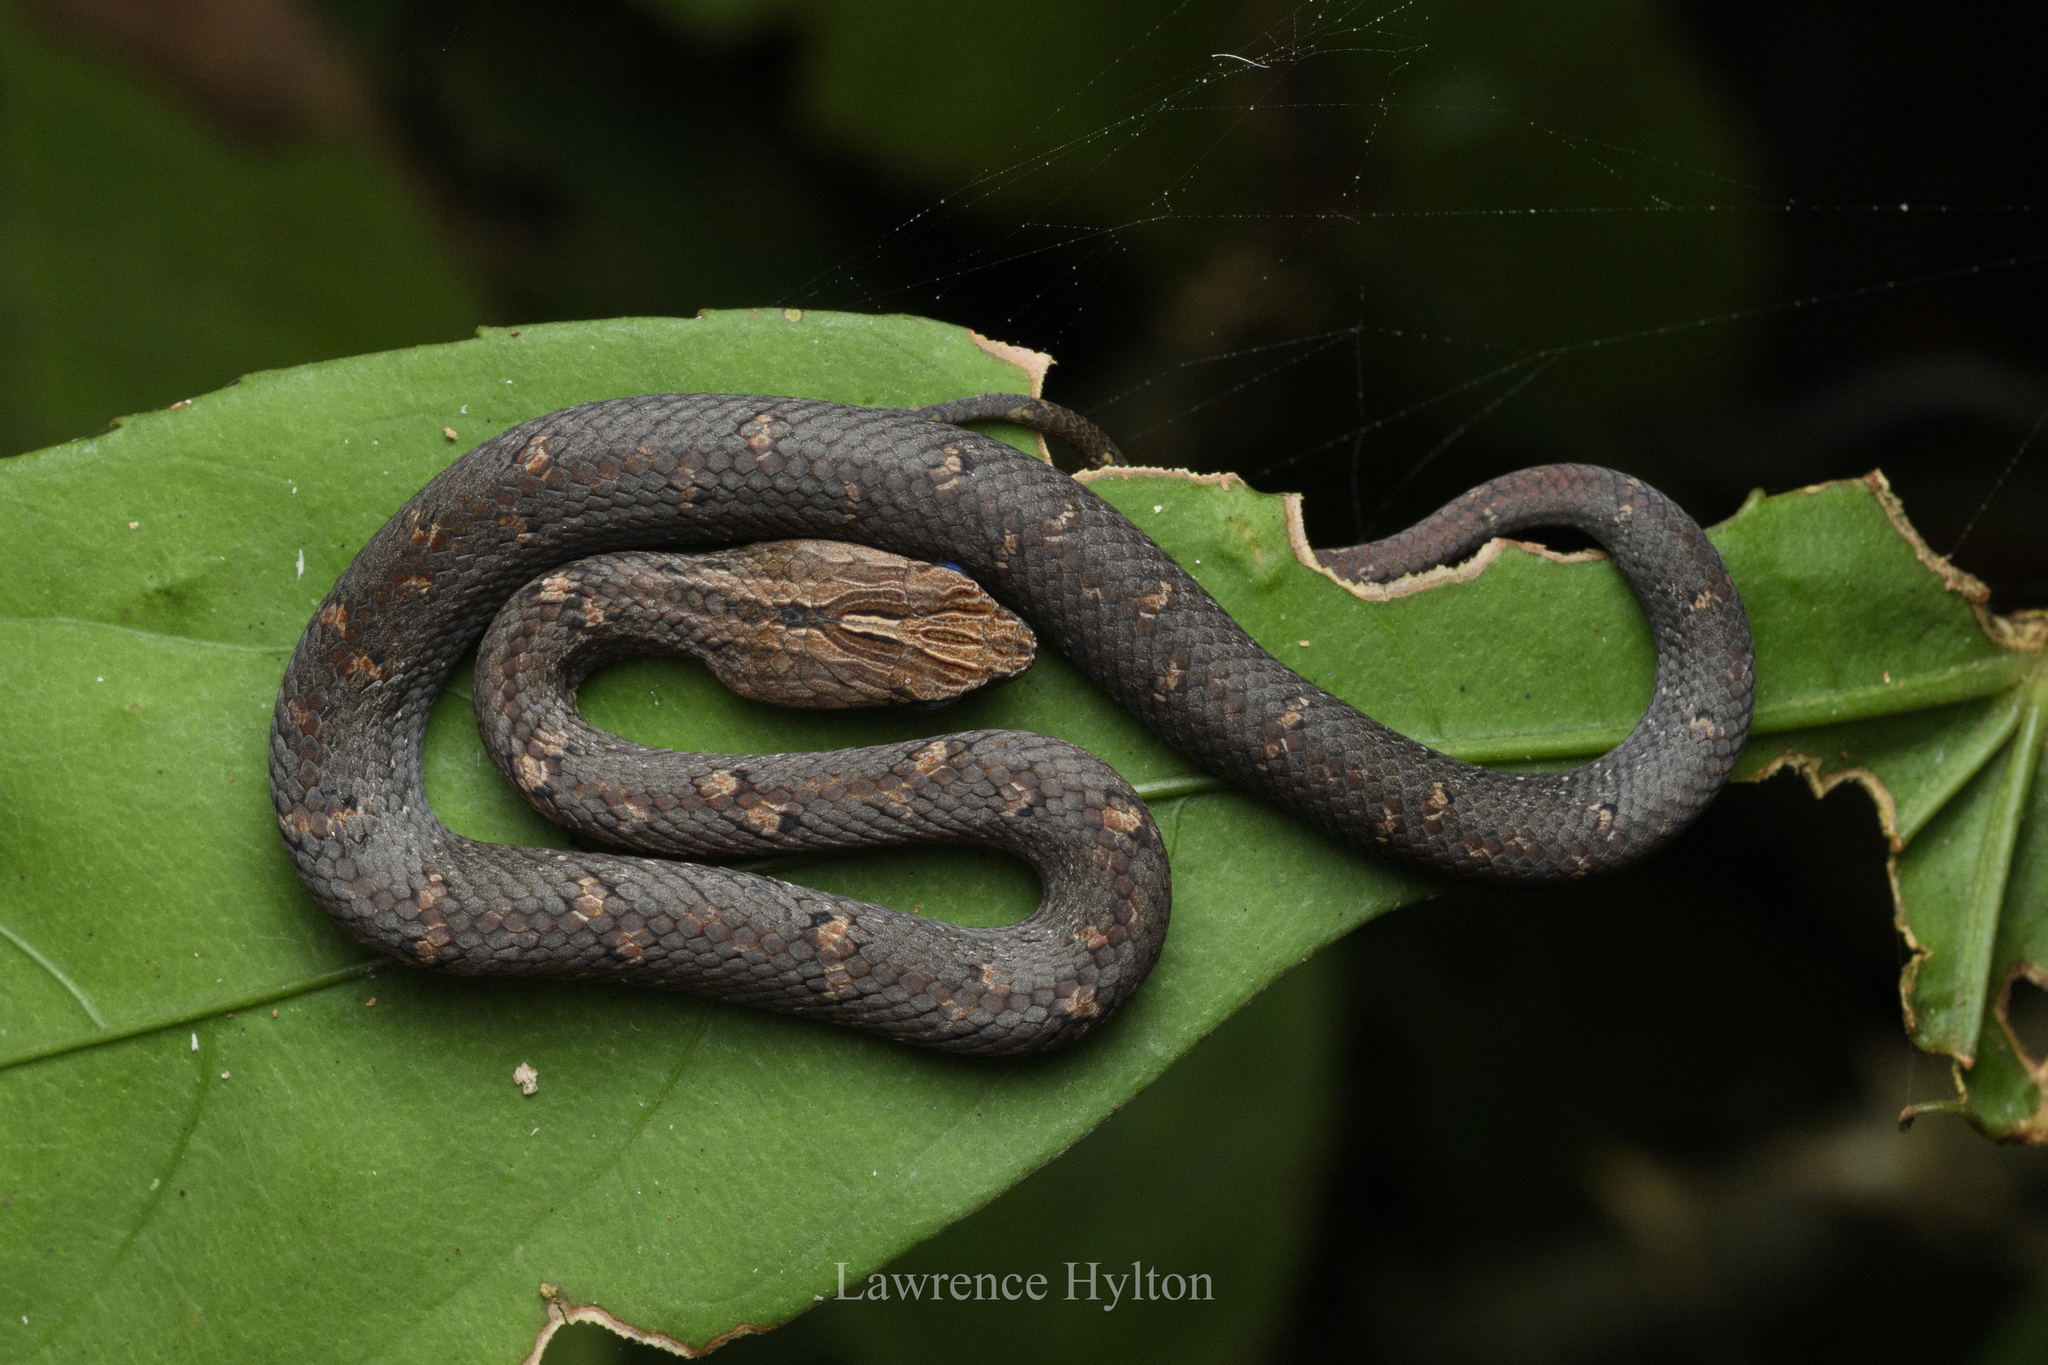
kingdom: Animalia
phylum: Chordata
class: Squamata
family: Pseudaspididae
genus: Psammodynastes
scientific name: Psammodynastes pulverulentus
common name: Common mock viper
